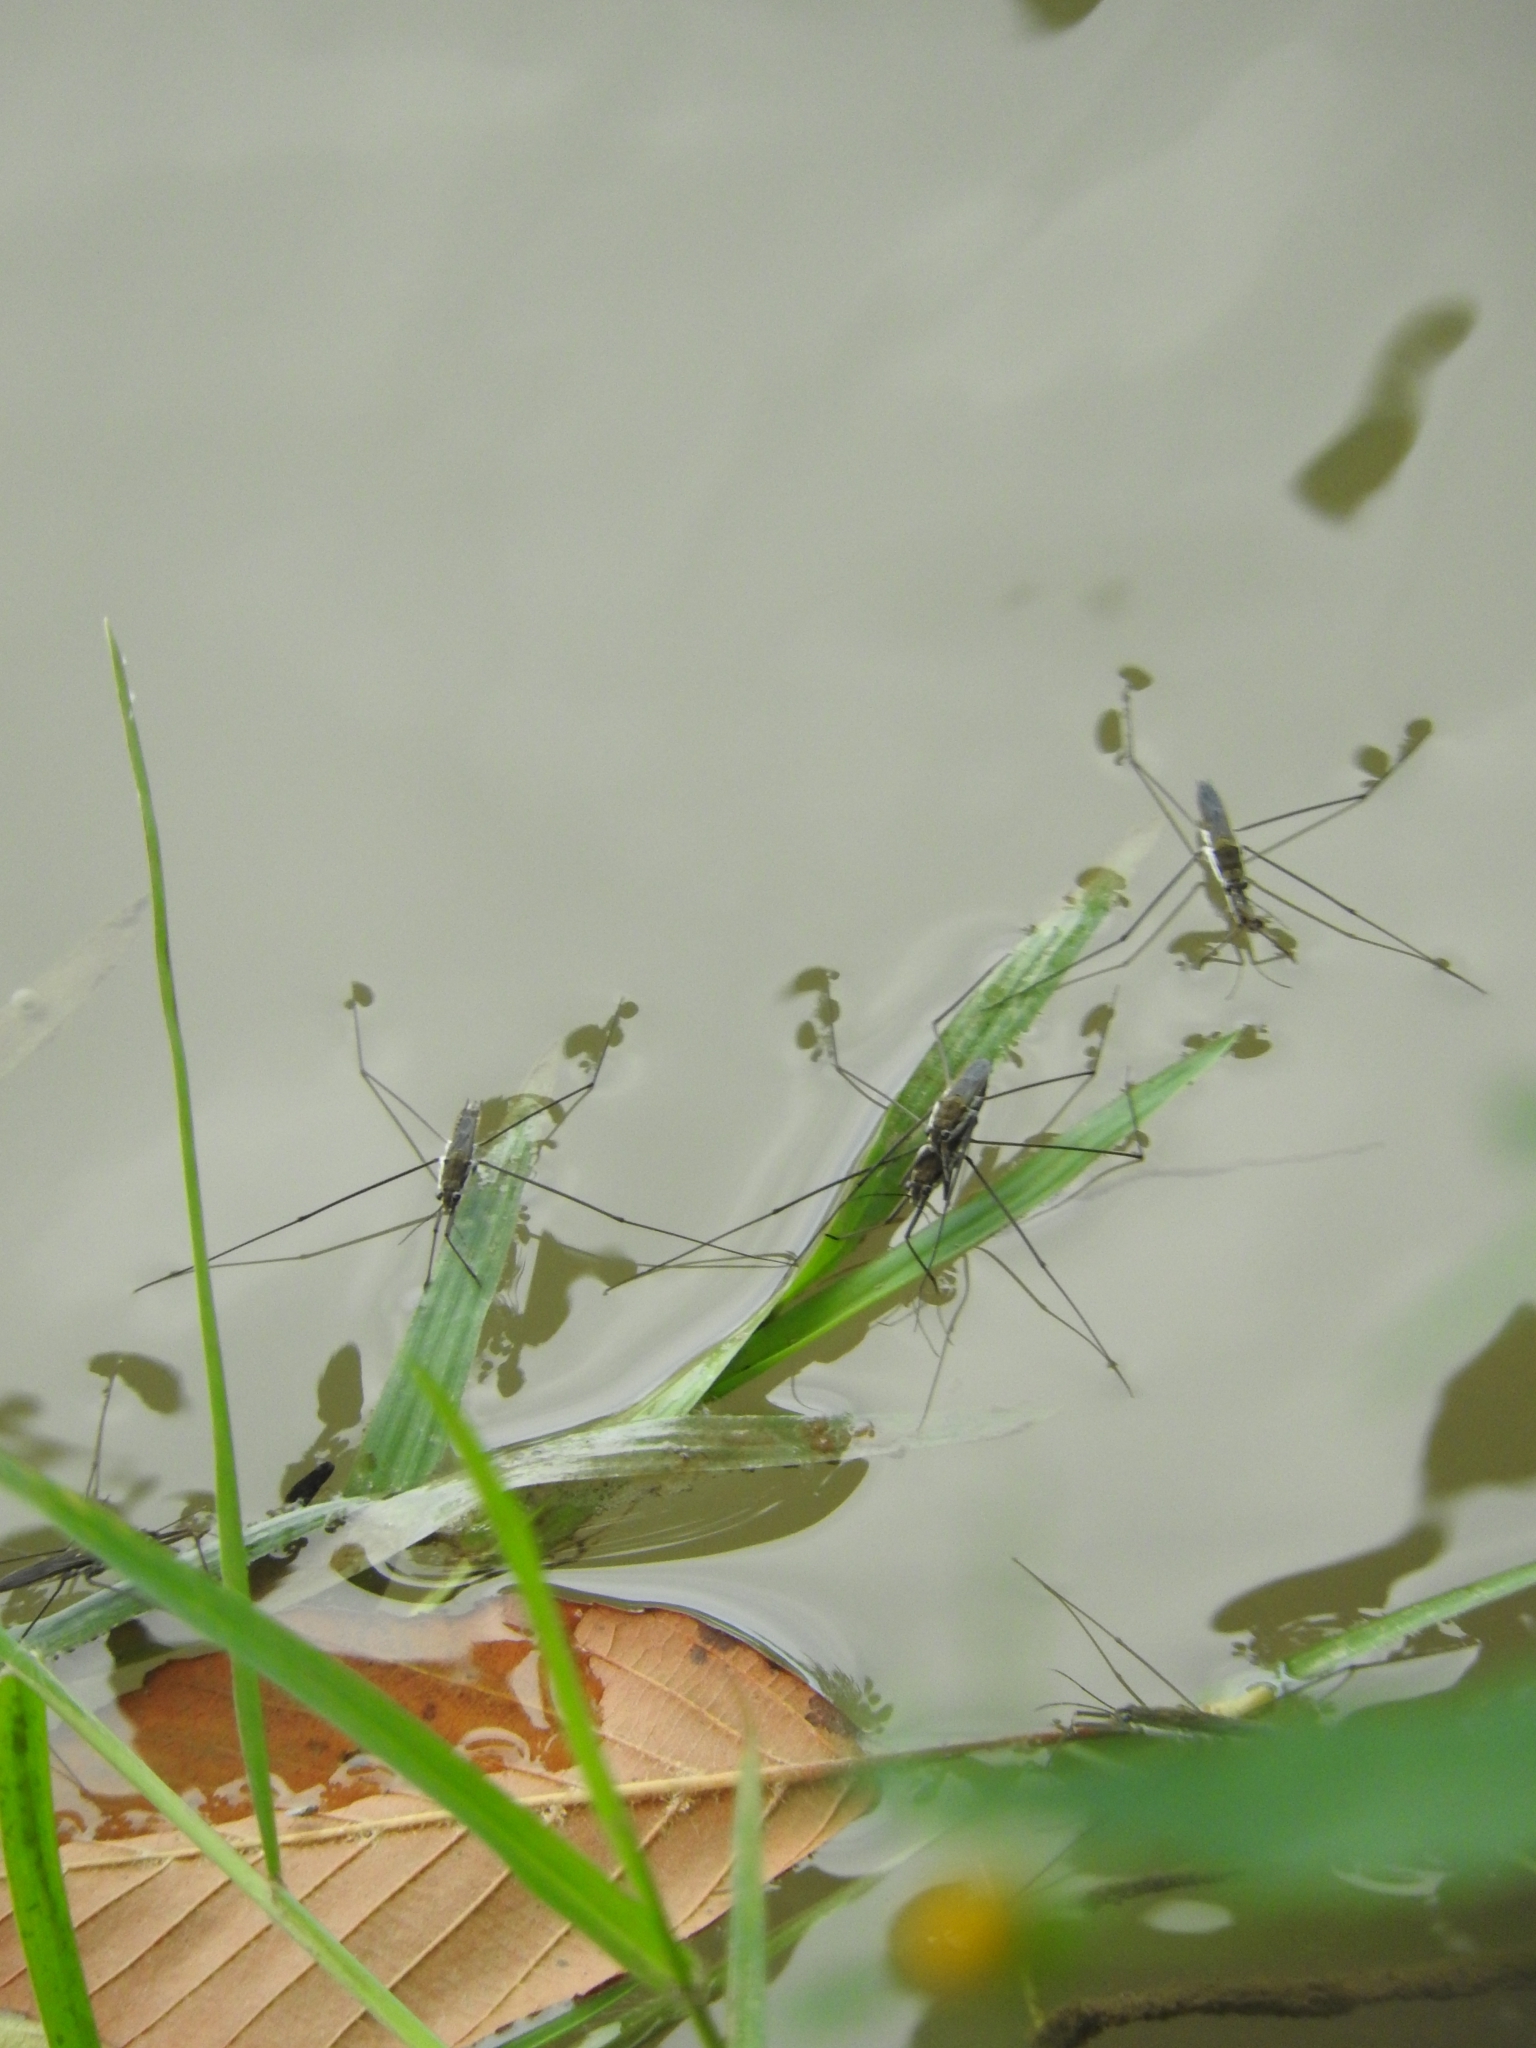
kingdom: Animalia
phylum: Arthropoda
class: Insecta
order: Hemiptera
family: Gerridae
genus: Aquarius
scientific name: Aquarius paludum
